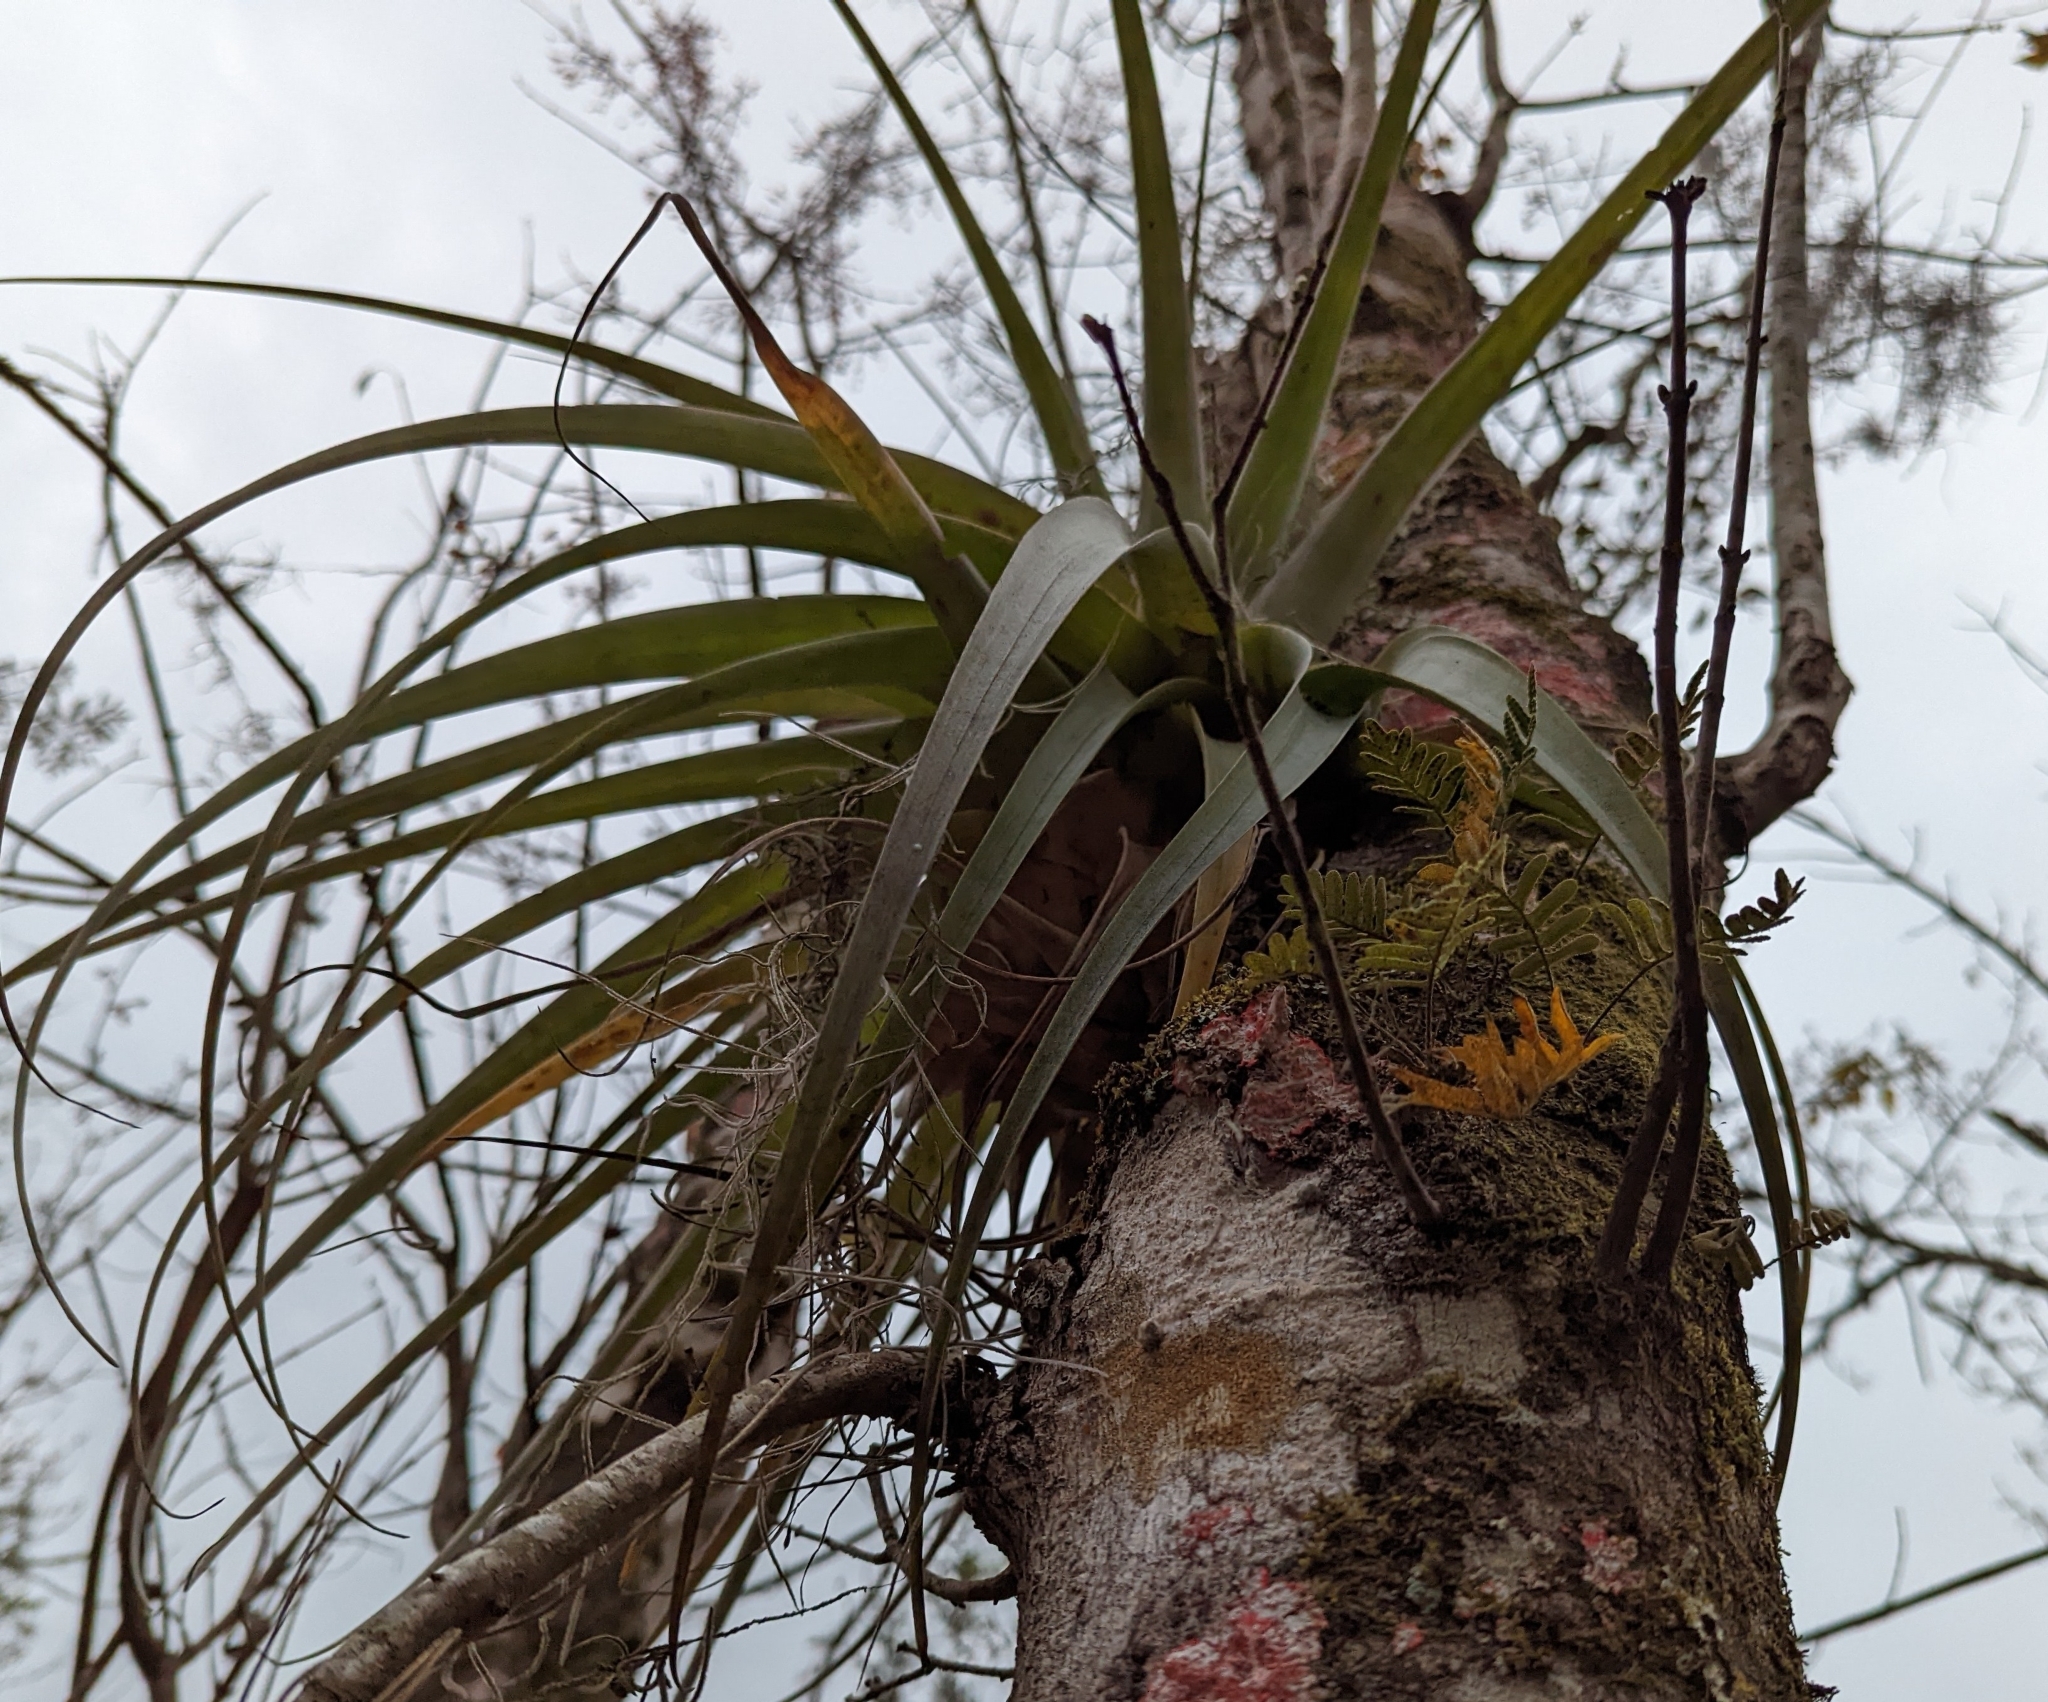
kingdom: Plantae
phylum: Tracheophyta
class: Liliopsida
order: Poales
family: Bromeliaceae
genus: Tillandsia
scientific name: Tillandsia utriculata
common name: Wild pine
